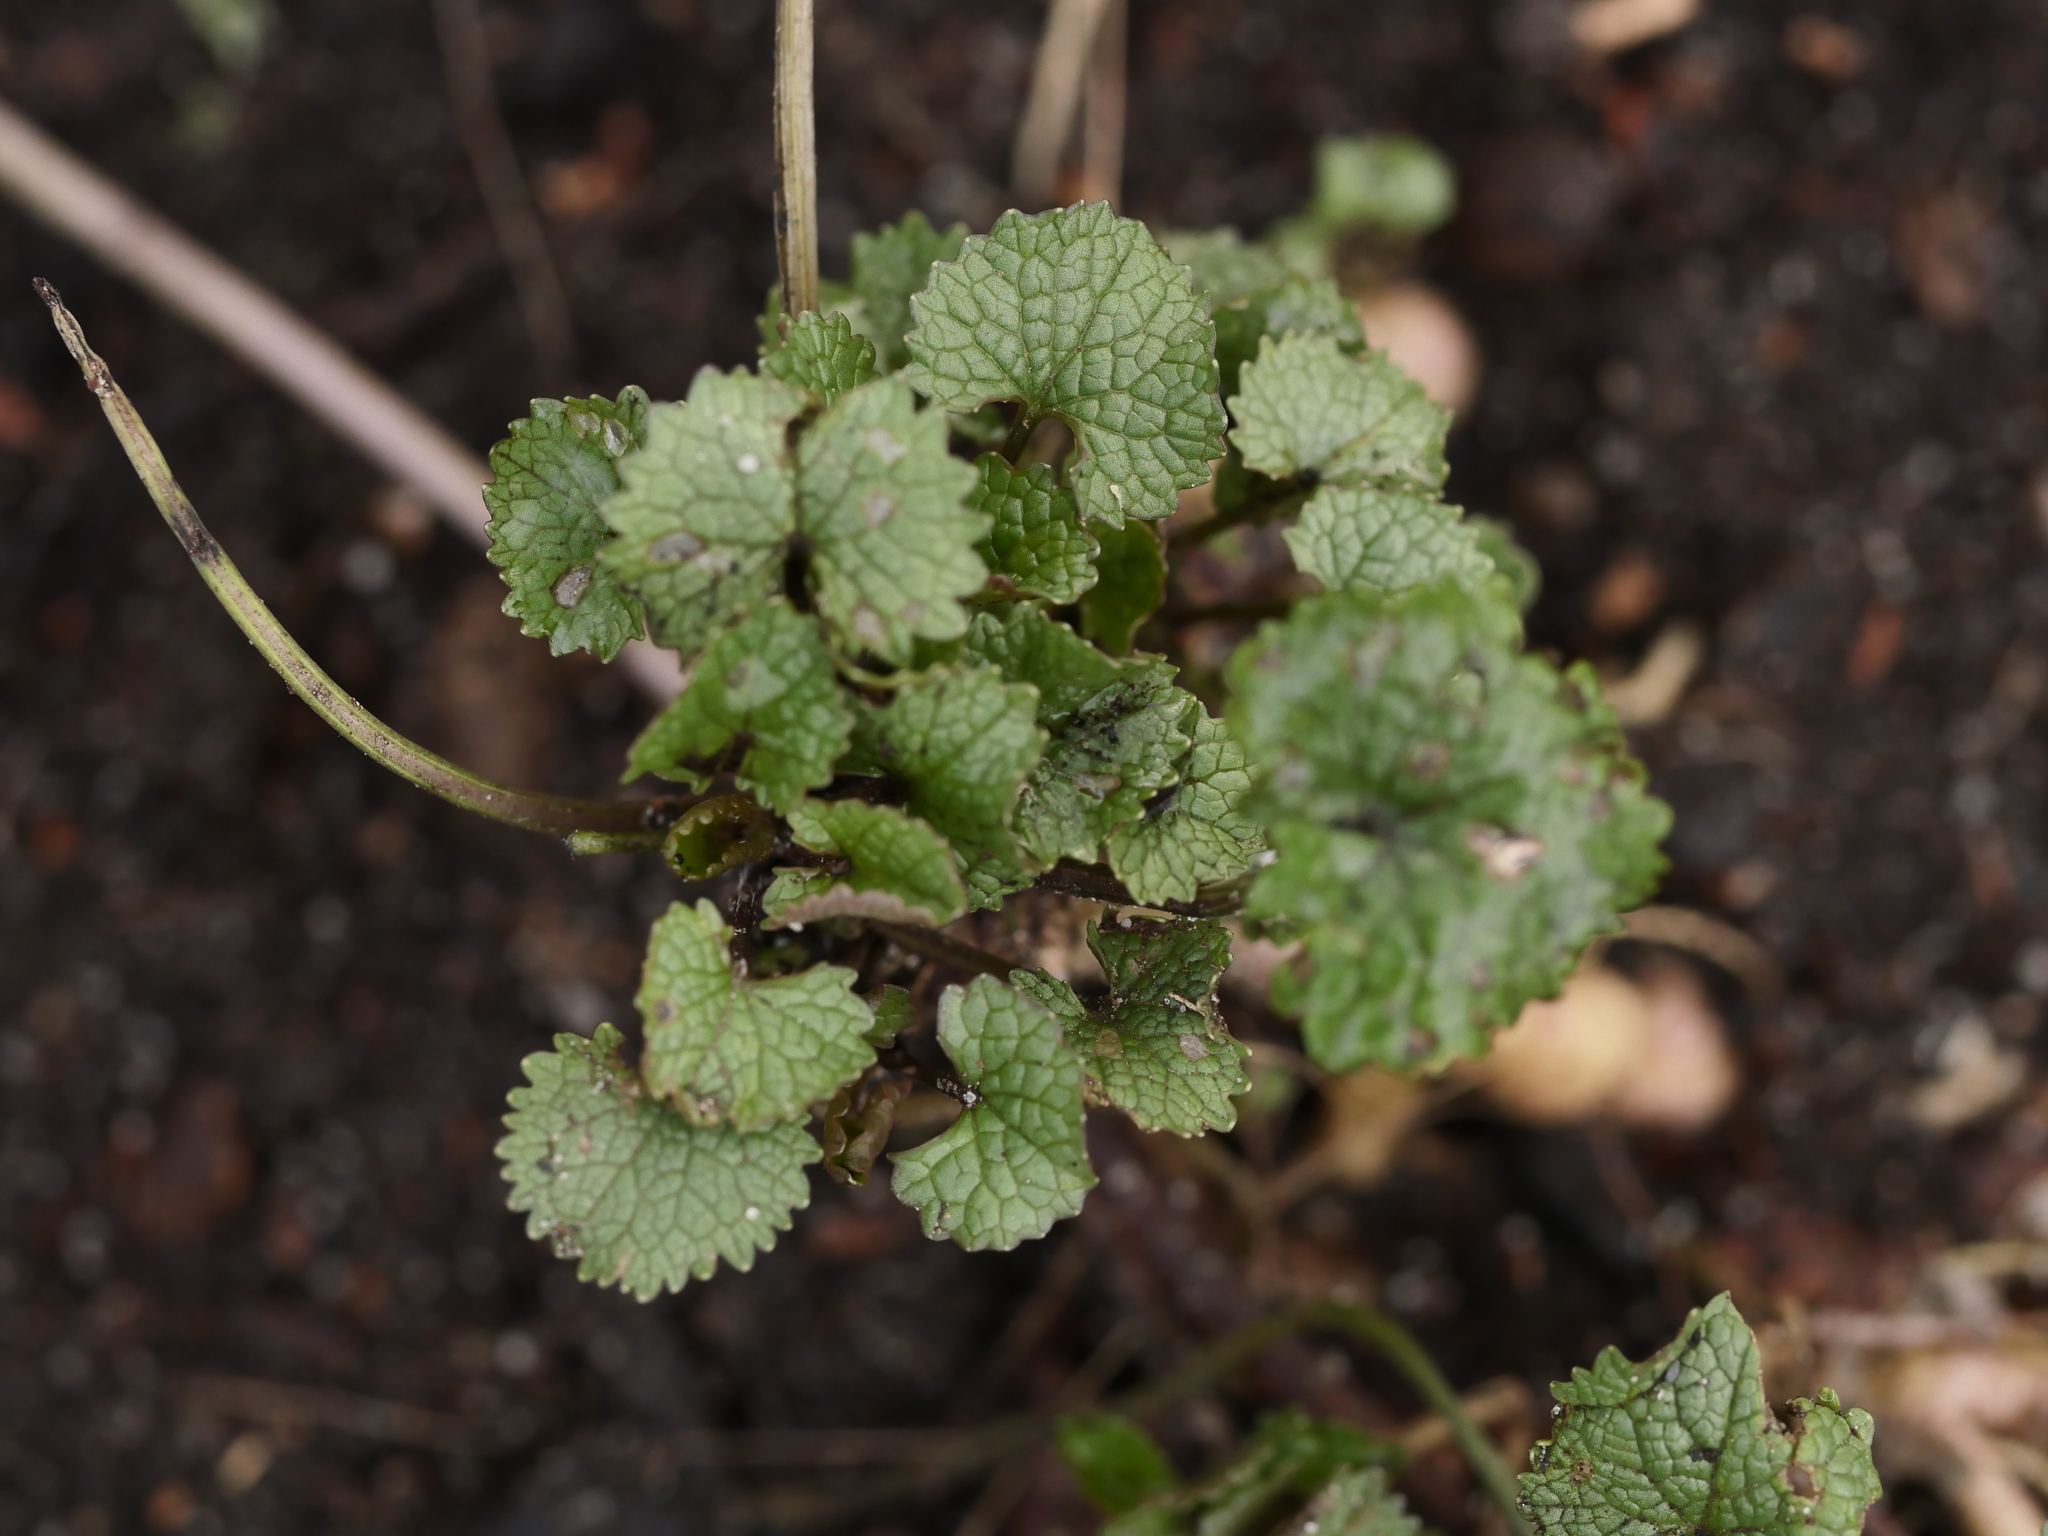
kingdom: Plantae
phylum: Tracheophyta
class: Magnoliopsida
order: Brassicales
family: Brassicaceae
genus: Alliaria
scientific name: Alliaria petiolata
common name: Garlic mustard
